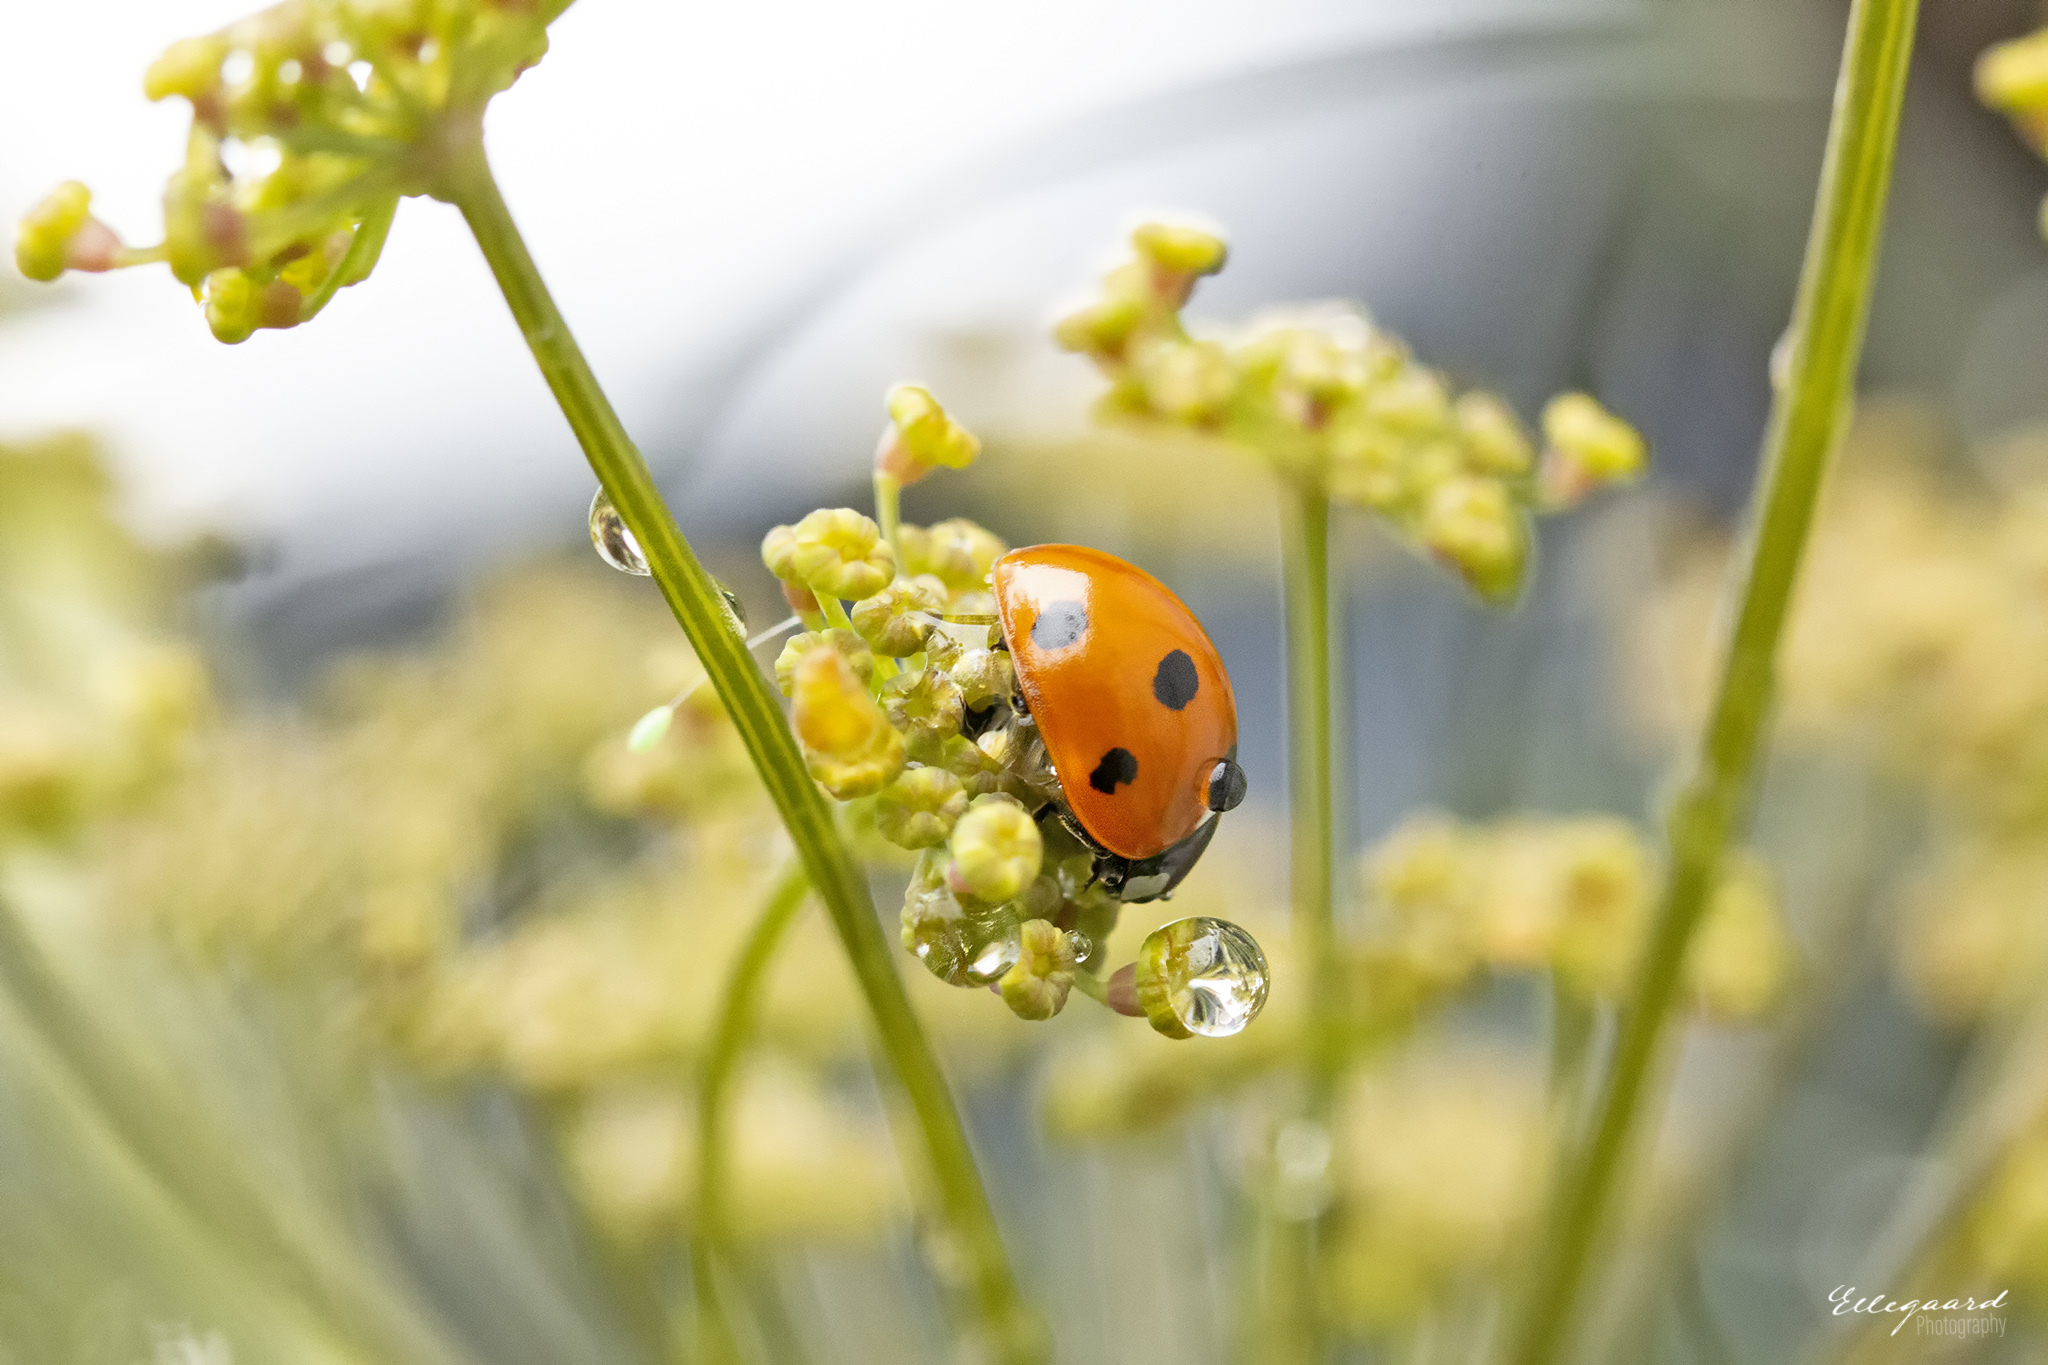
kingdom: Animalia
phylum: Arthropoda
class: Insecta
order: Coleoptera
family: Coccinellidae
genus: Coccinella
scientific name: Coccinella septempunctata
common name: Sevenspotted lady beetle
